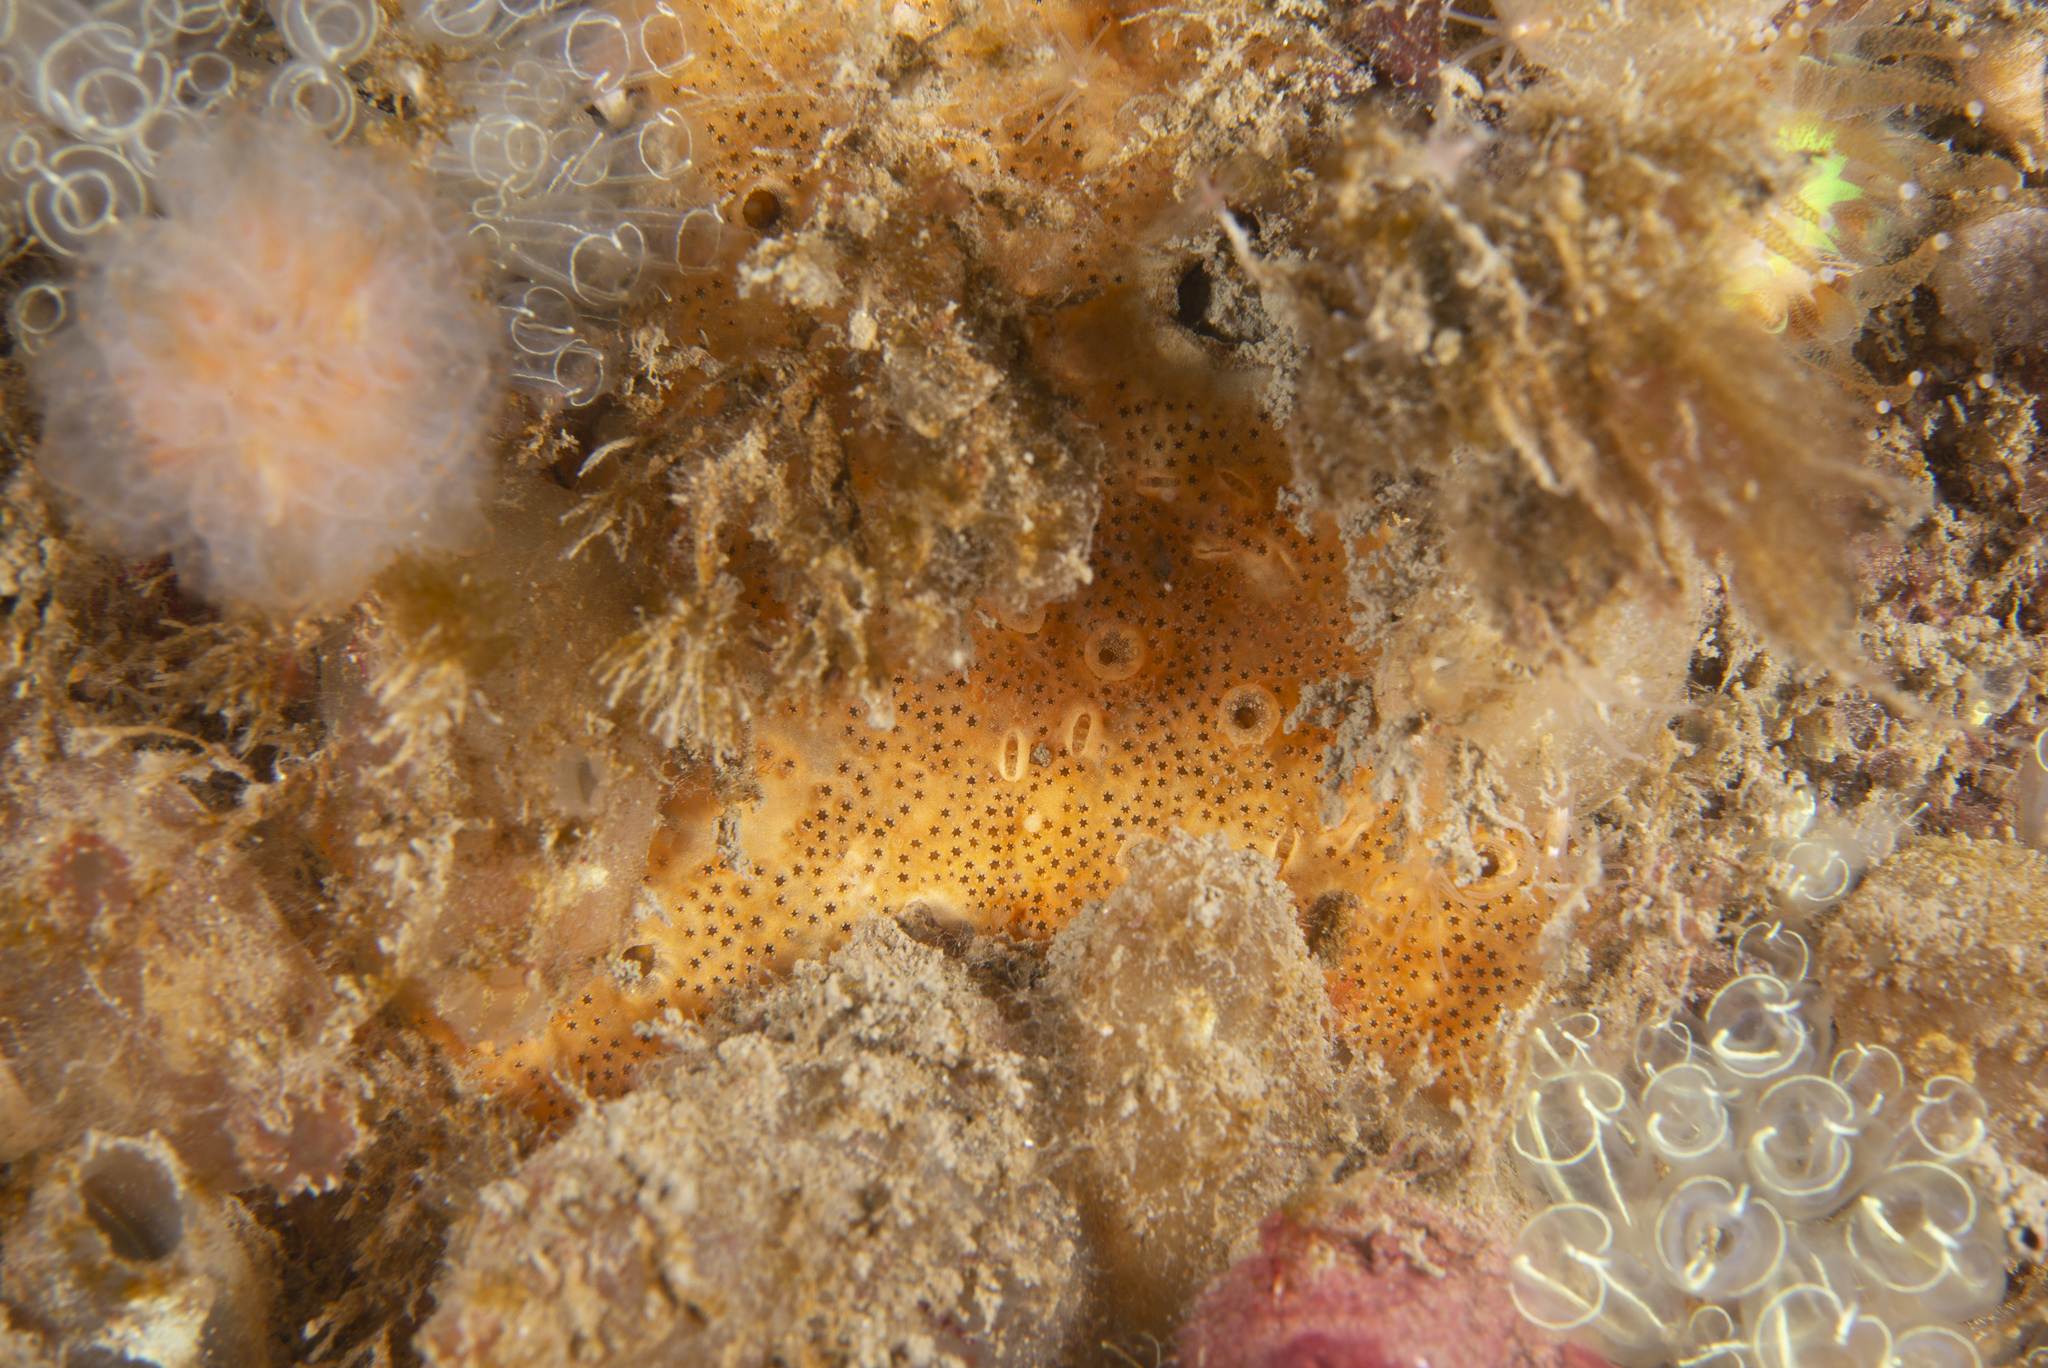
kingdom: Animalia
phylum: Chordata
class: Ascidiacea
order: Aplousobranchia
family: Didemnidae
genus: Polysyncraton
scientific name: Polysyncraton bilobatum
